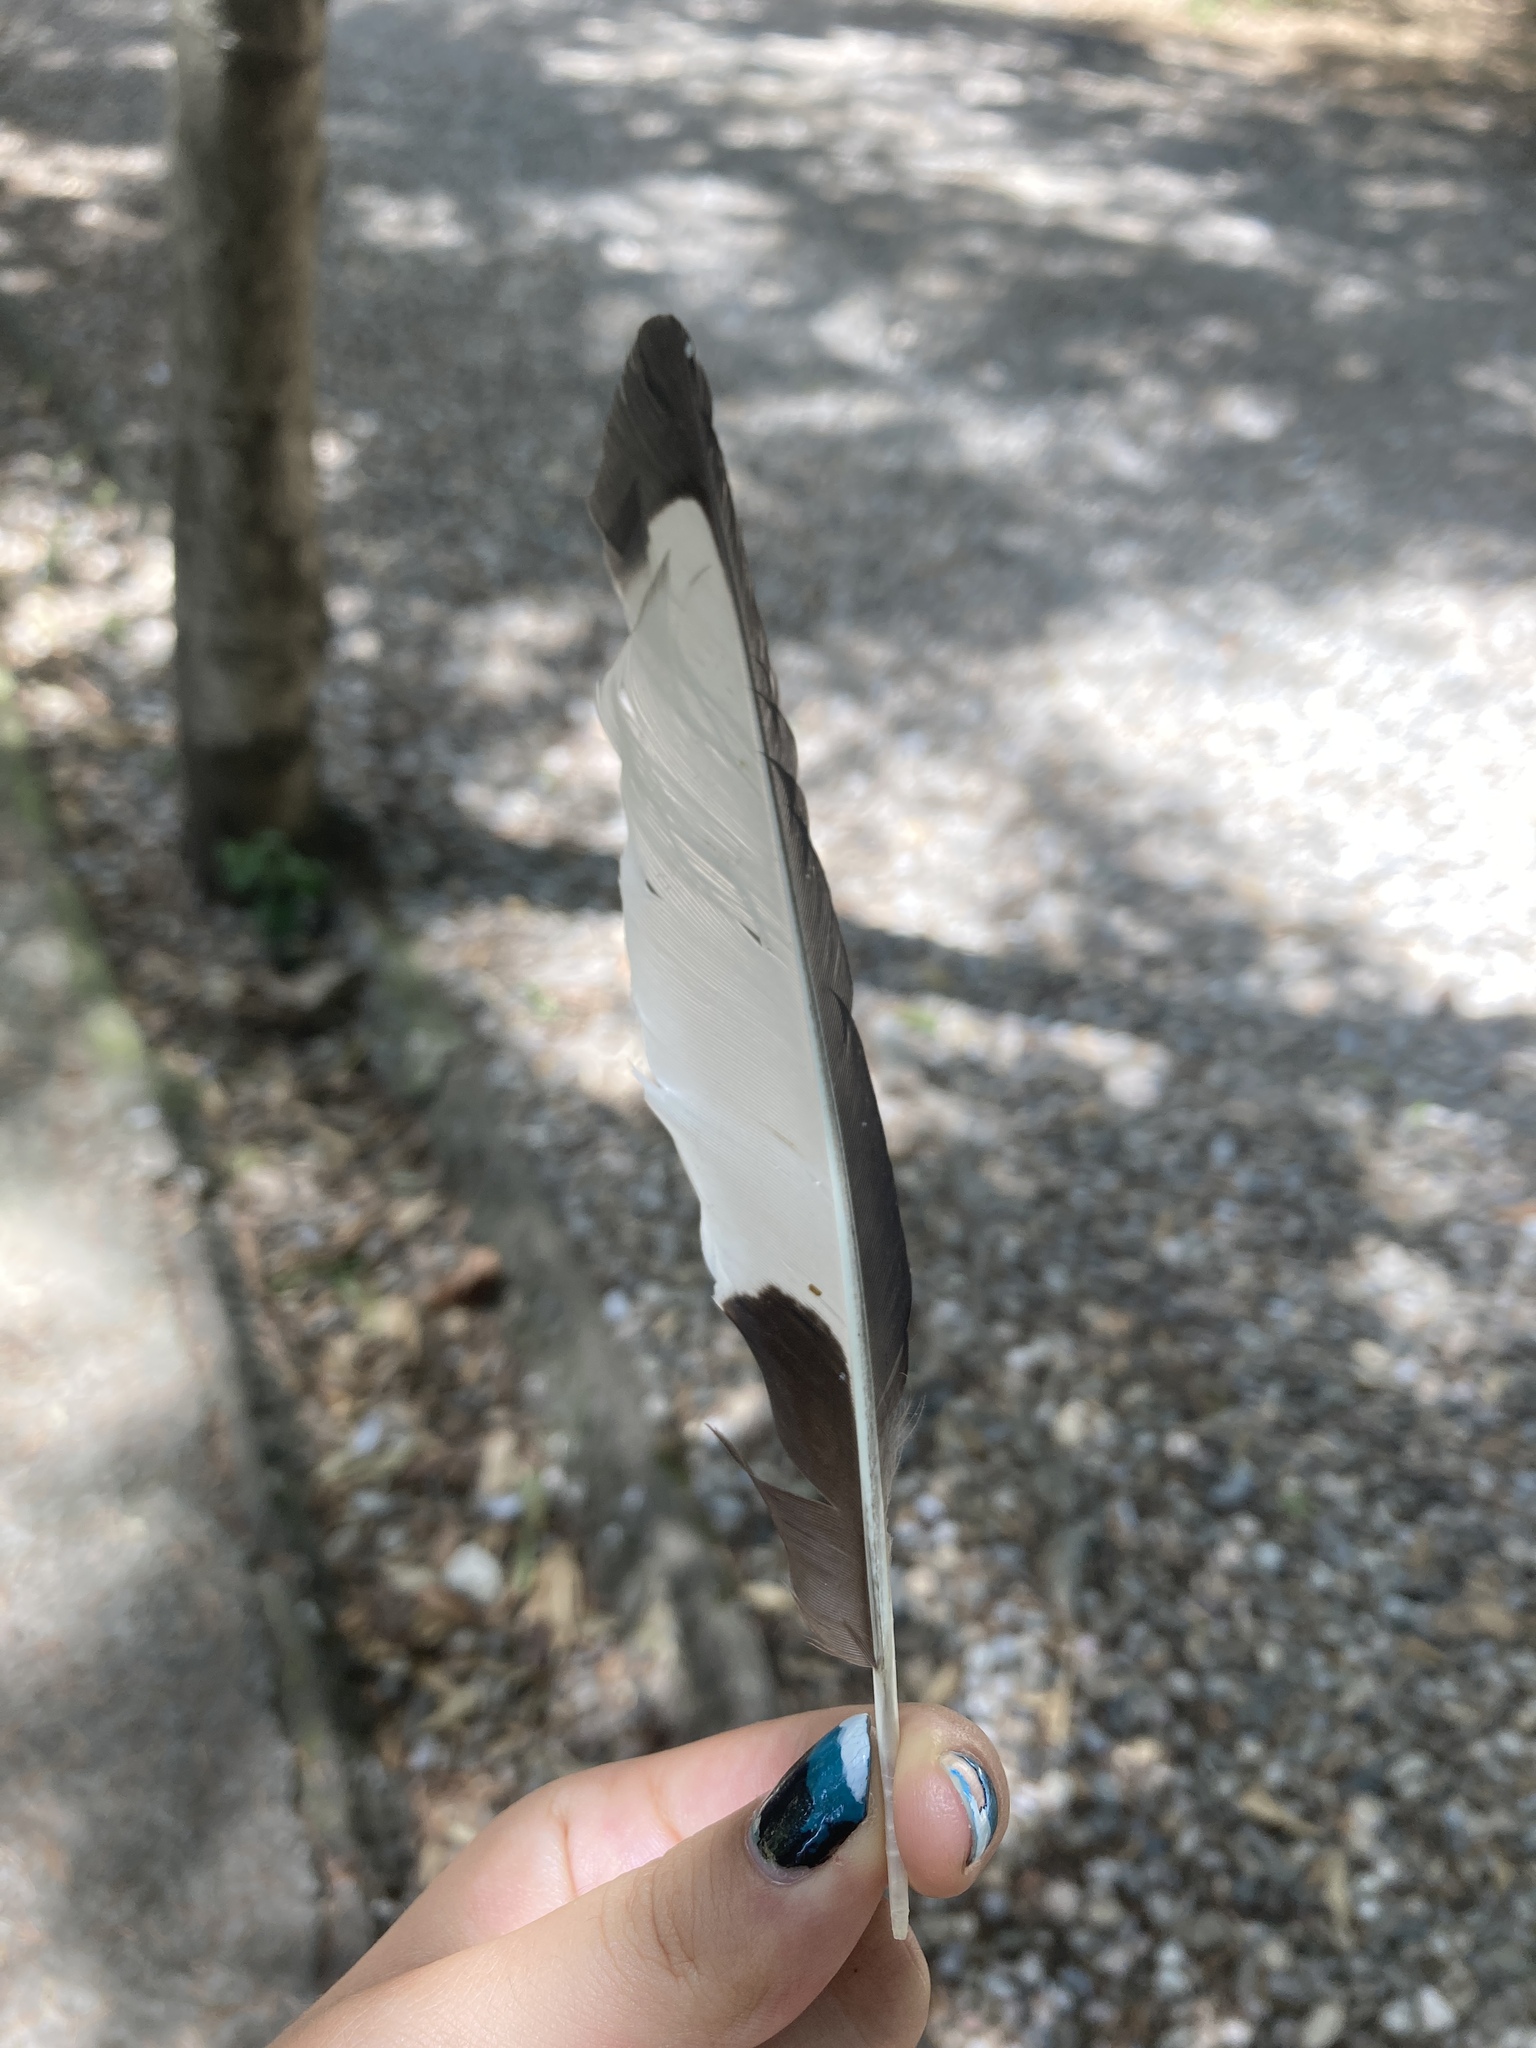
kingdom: Animalia
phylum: Chordata
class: Aves
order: Passeriformes
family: Corvidae
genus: Pica
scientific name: Pica pica
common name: Eurasian magpie
